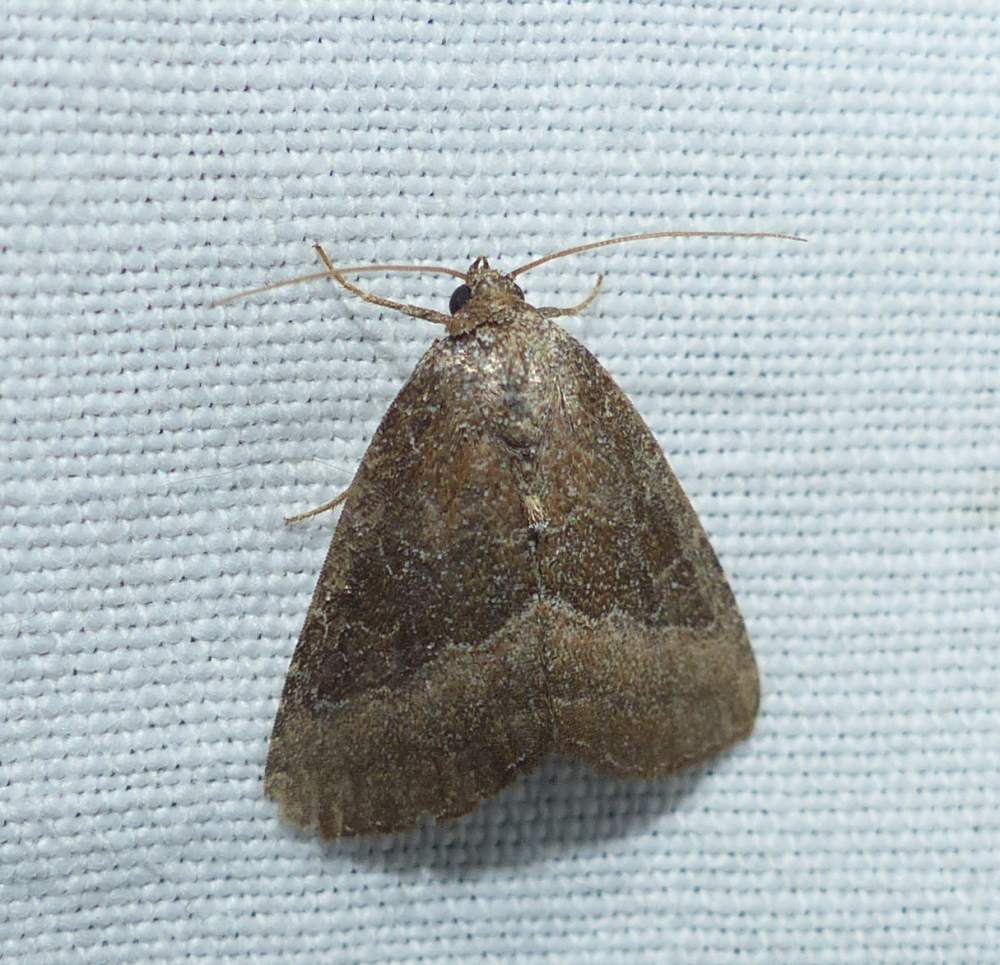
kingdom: Animalia
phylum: Arthropoda
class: Insecta
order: Lepidoptera
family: Noctuidae
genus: Ogdoconta
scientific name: Ogdoconta cinereola
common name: Common pinkband
